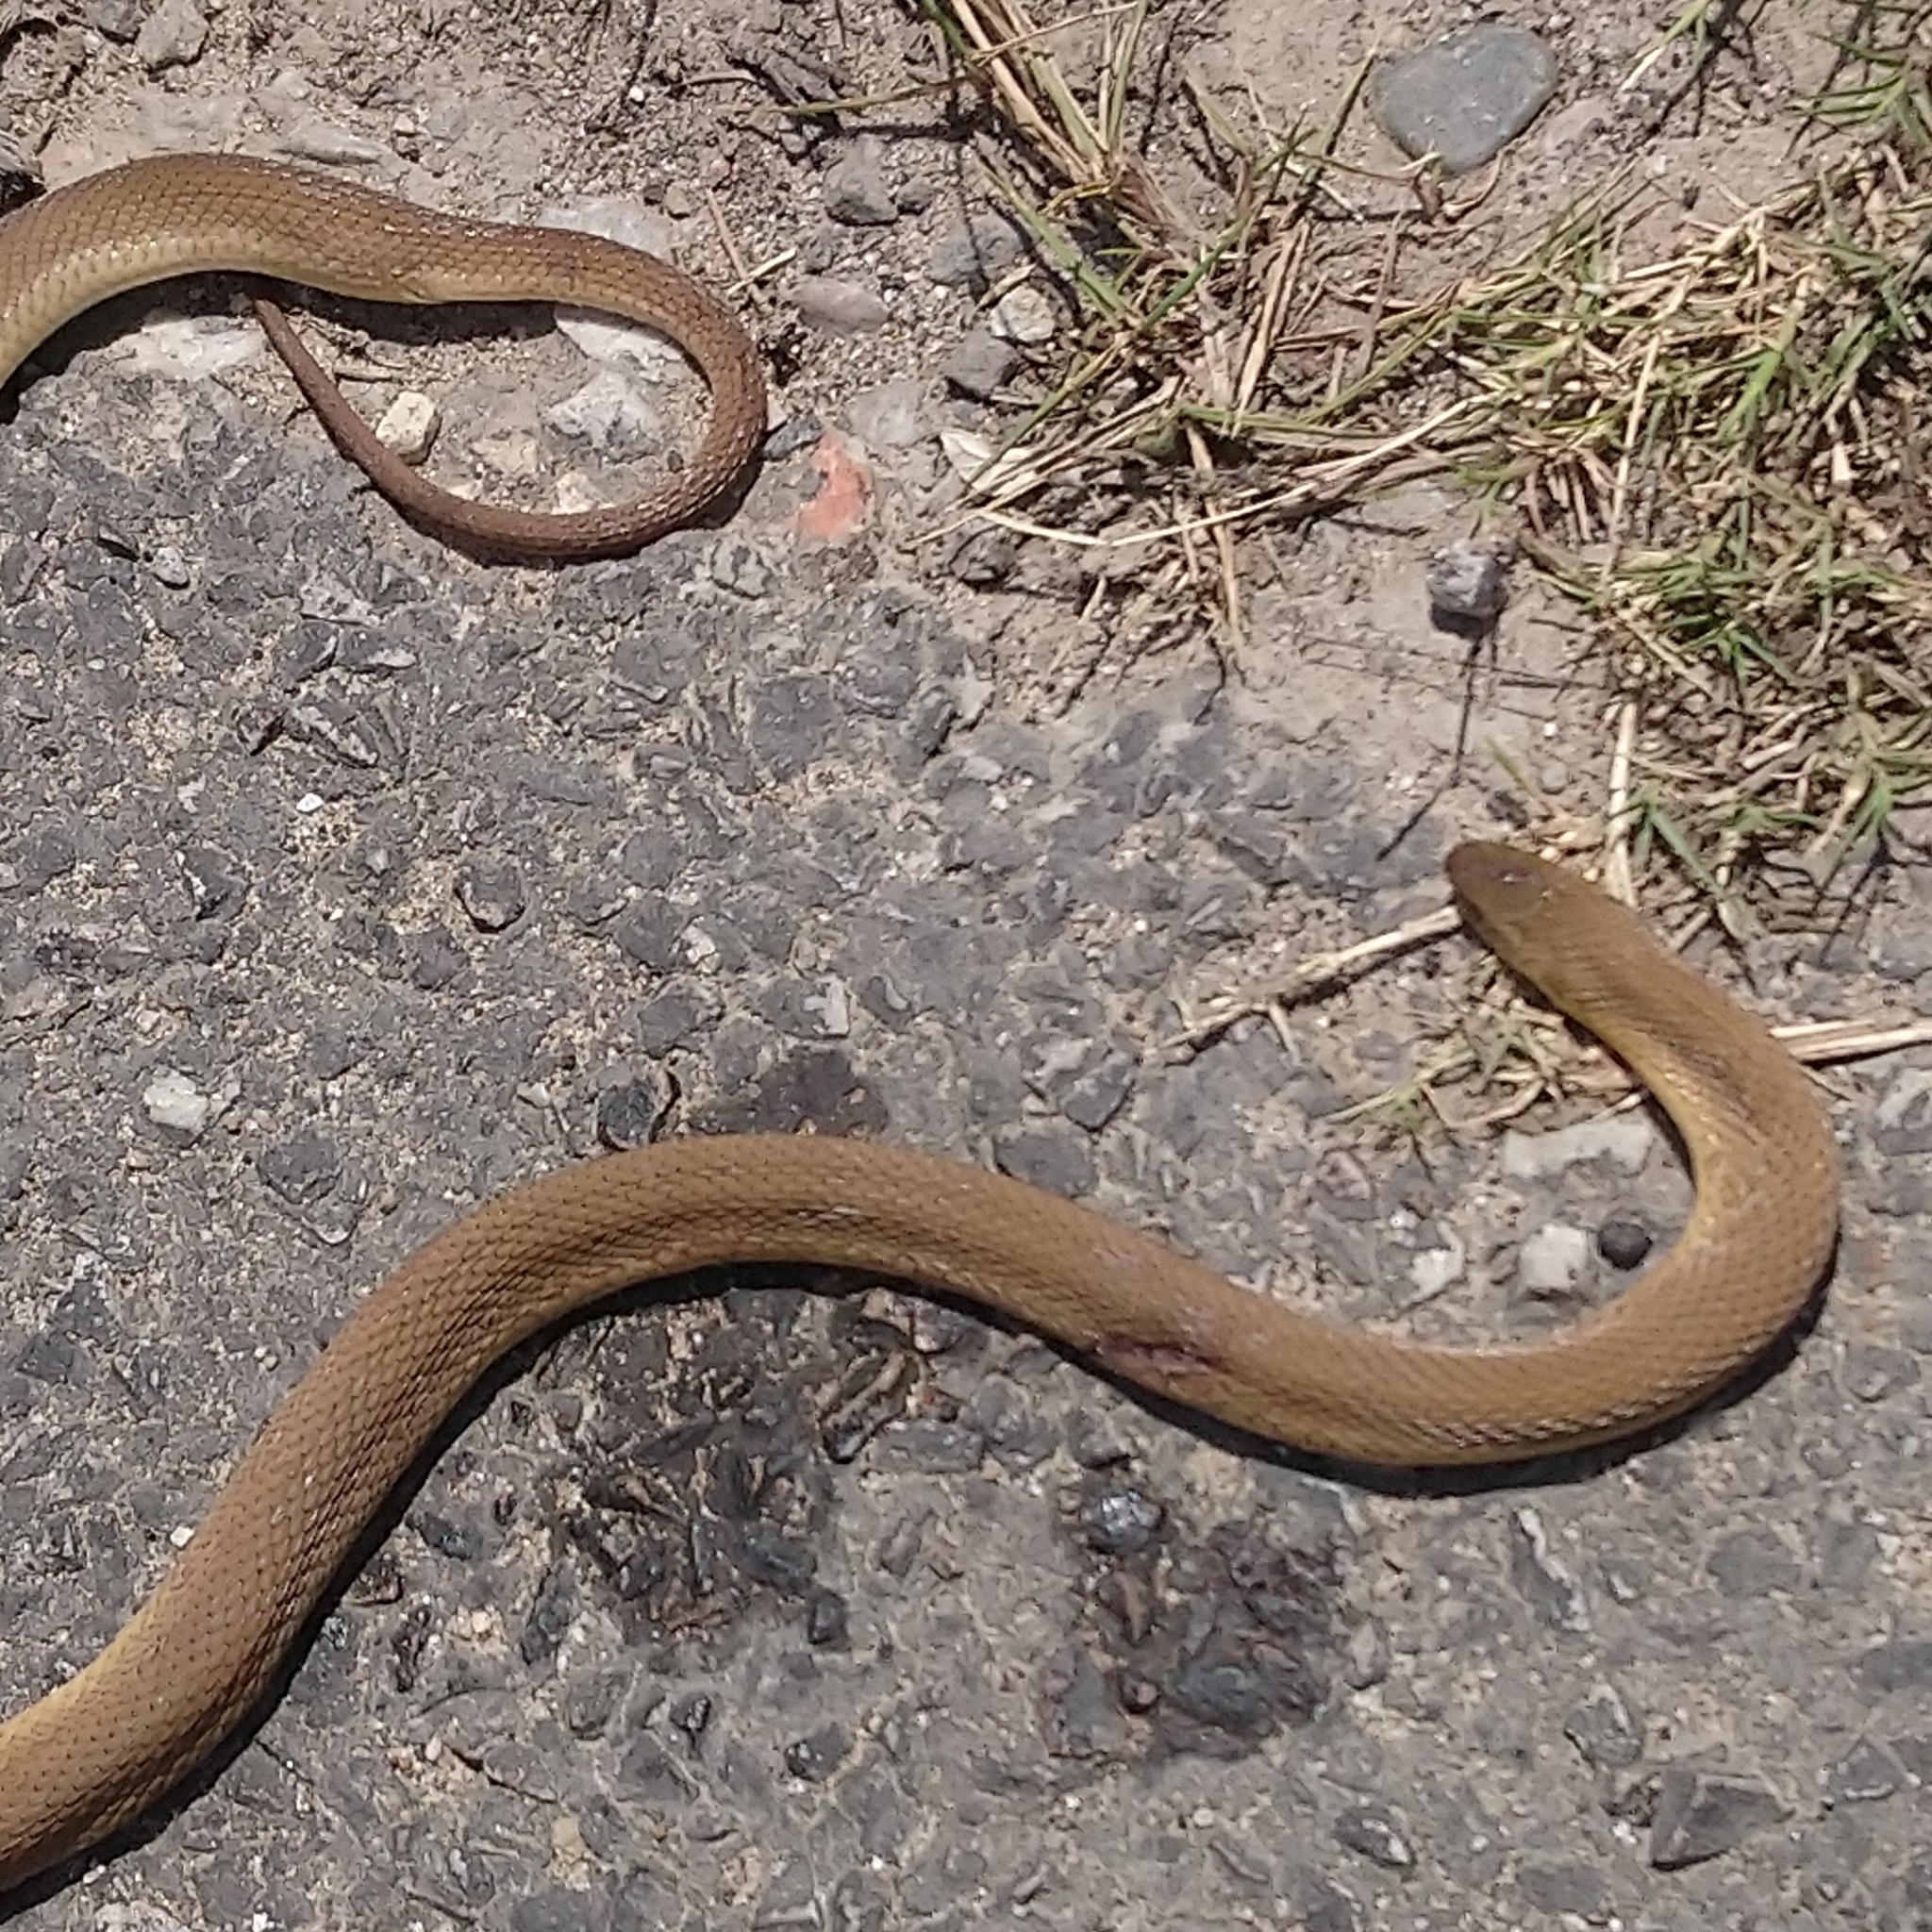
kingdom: Animalia
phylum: Chordata
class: Squamata
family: Colubridae
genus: Dasypeltis
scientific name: Dasypeltis inornata
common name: Southern brown egg eater
